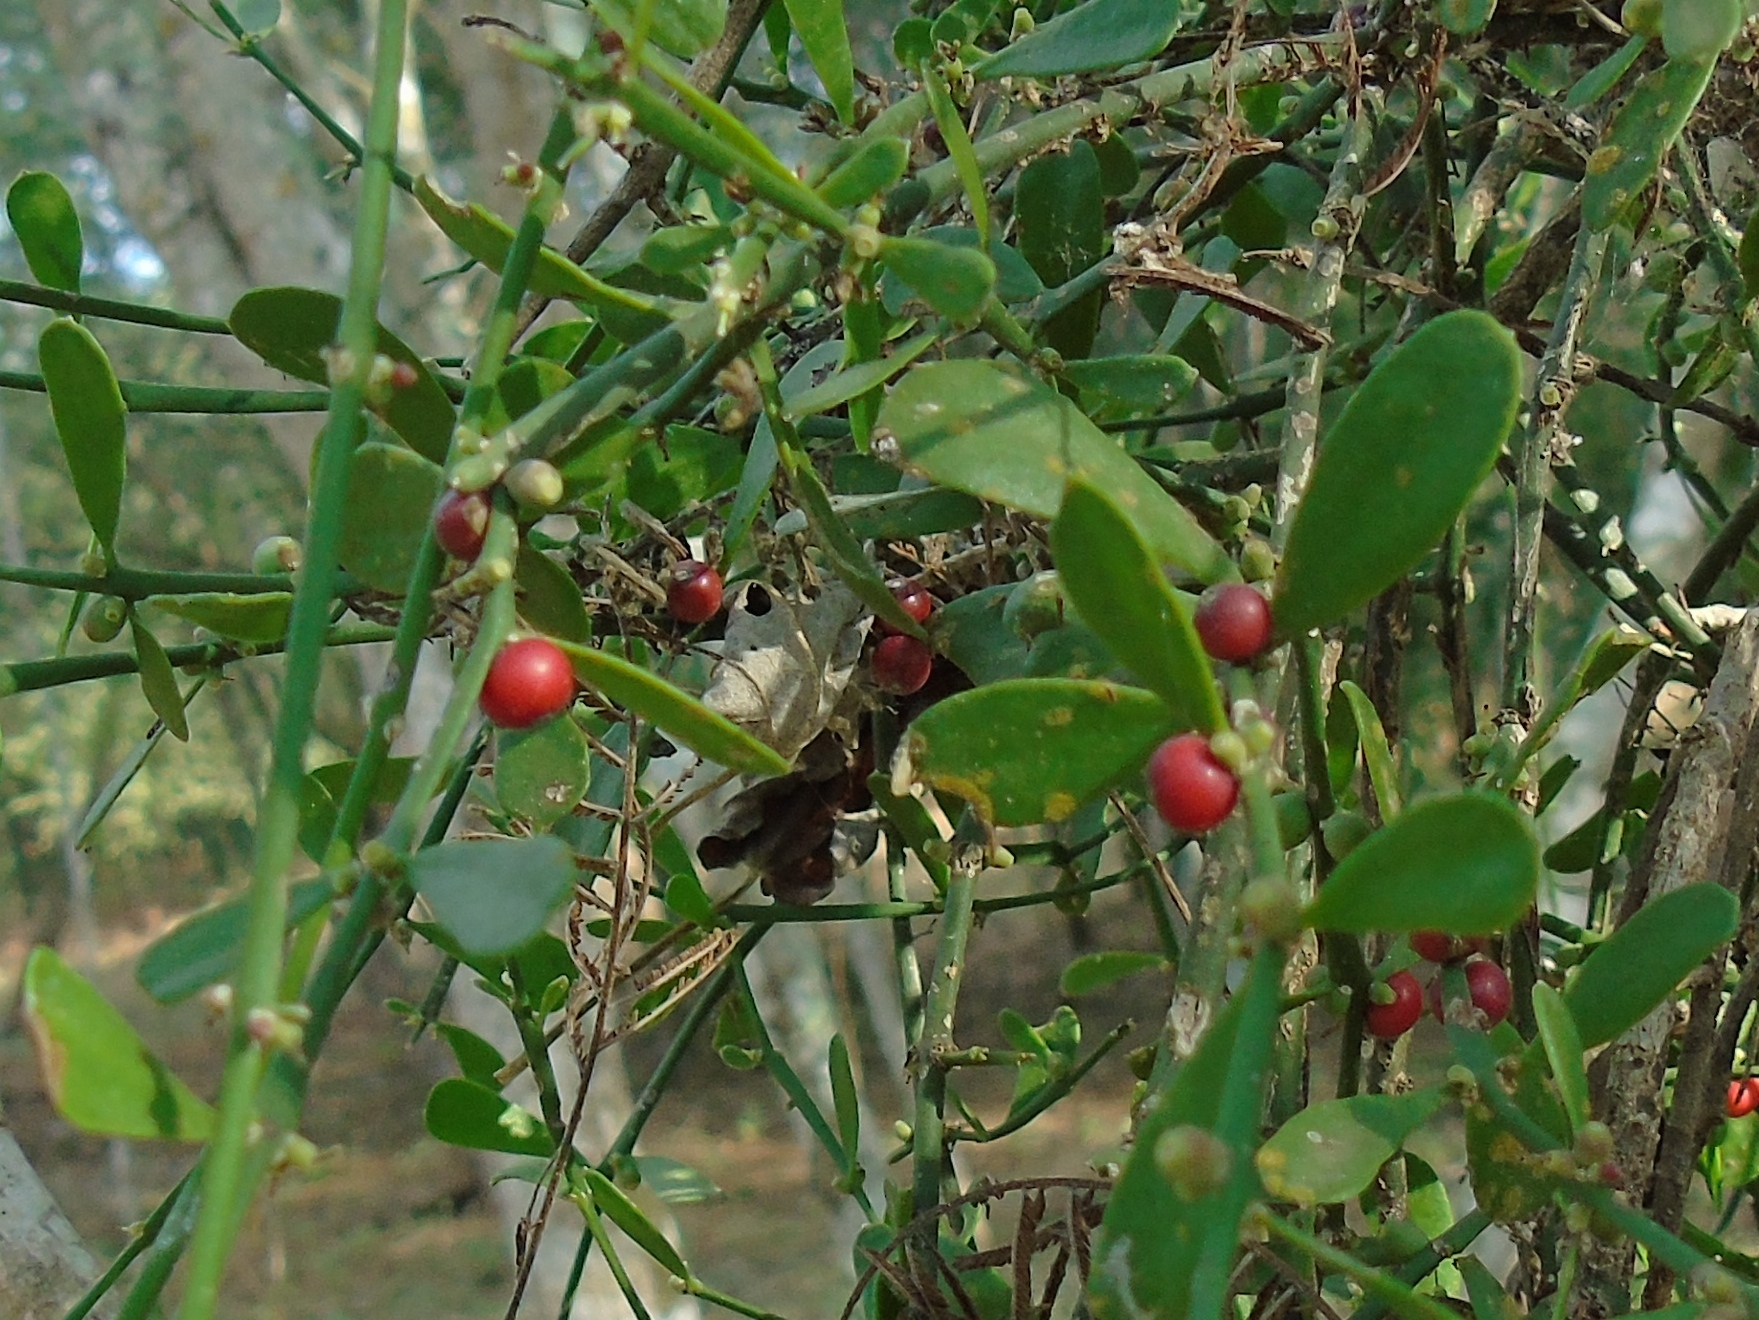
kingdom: Plantae
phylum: Tracheophyta
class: Magnoliopsida
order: Santalales
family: Loranthaceae
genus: Phthirusa
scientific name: Phthirusa inconspicua
